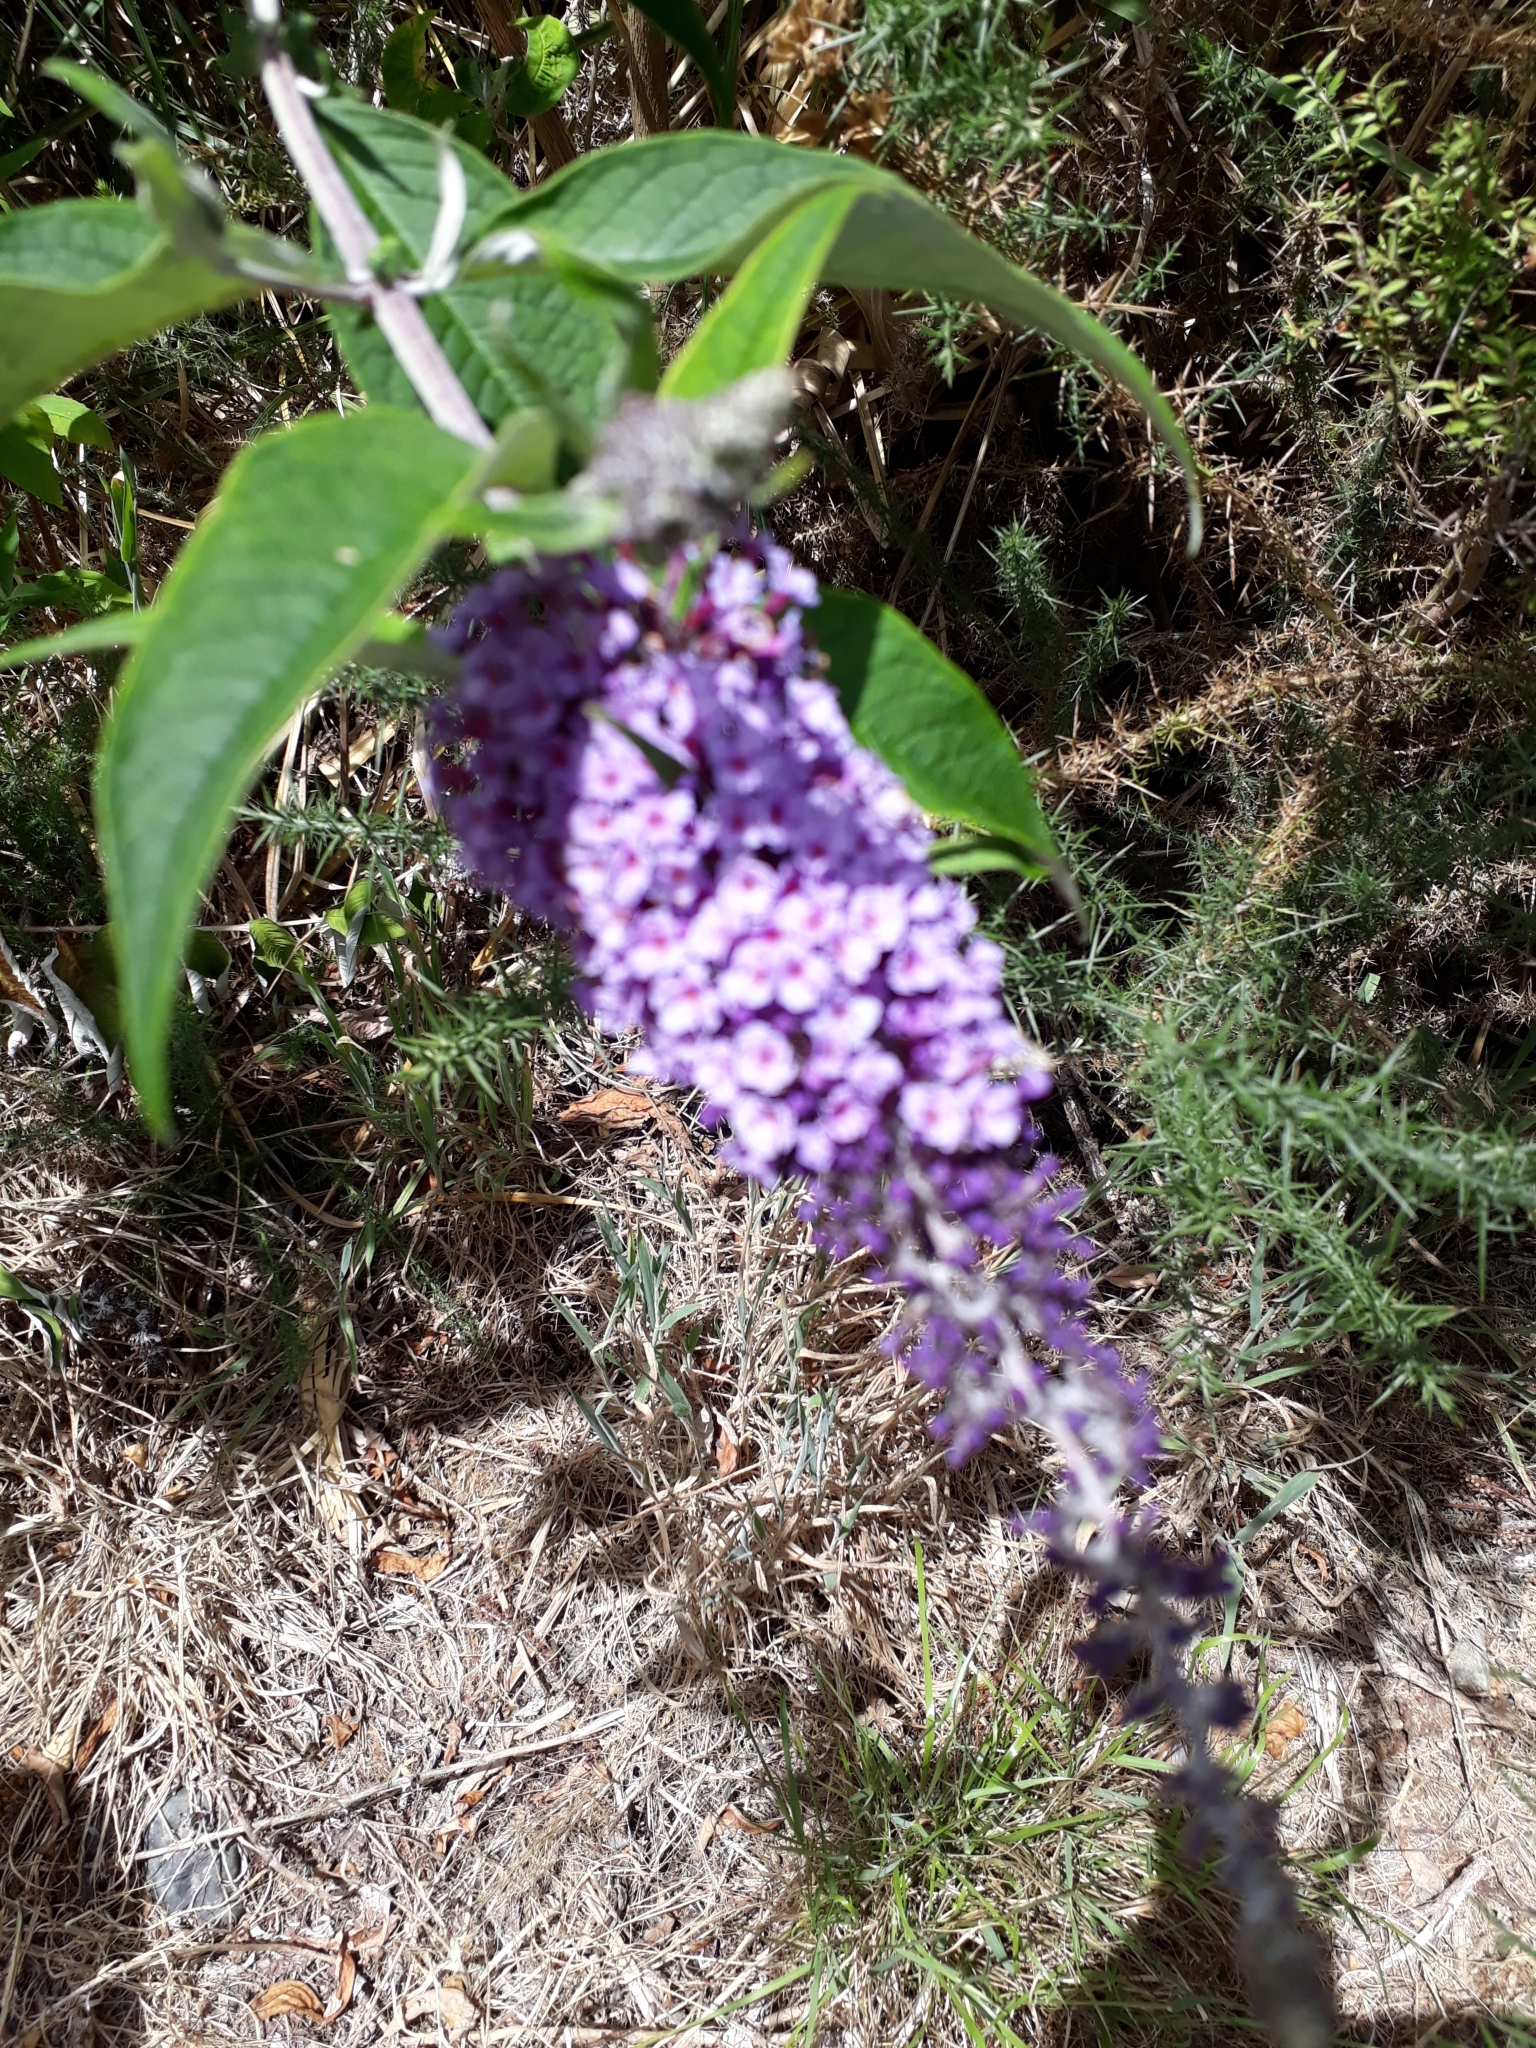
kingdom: Plantae
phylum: Tracheophyta
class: Magnoliopsida
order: Lamiales
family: Scrophulariaceae
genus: Buddleja
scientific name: Buddleja davidii
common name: Butterfly-bush
